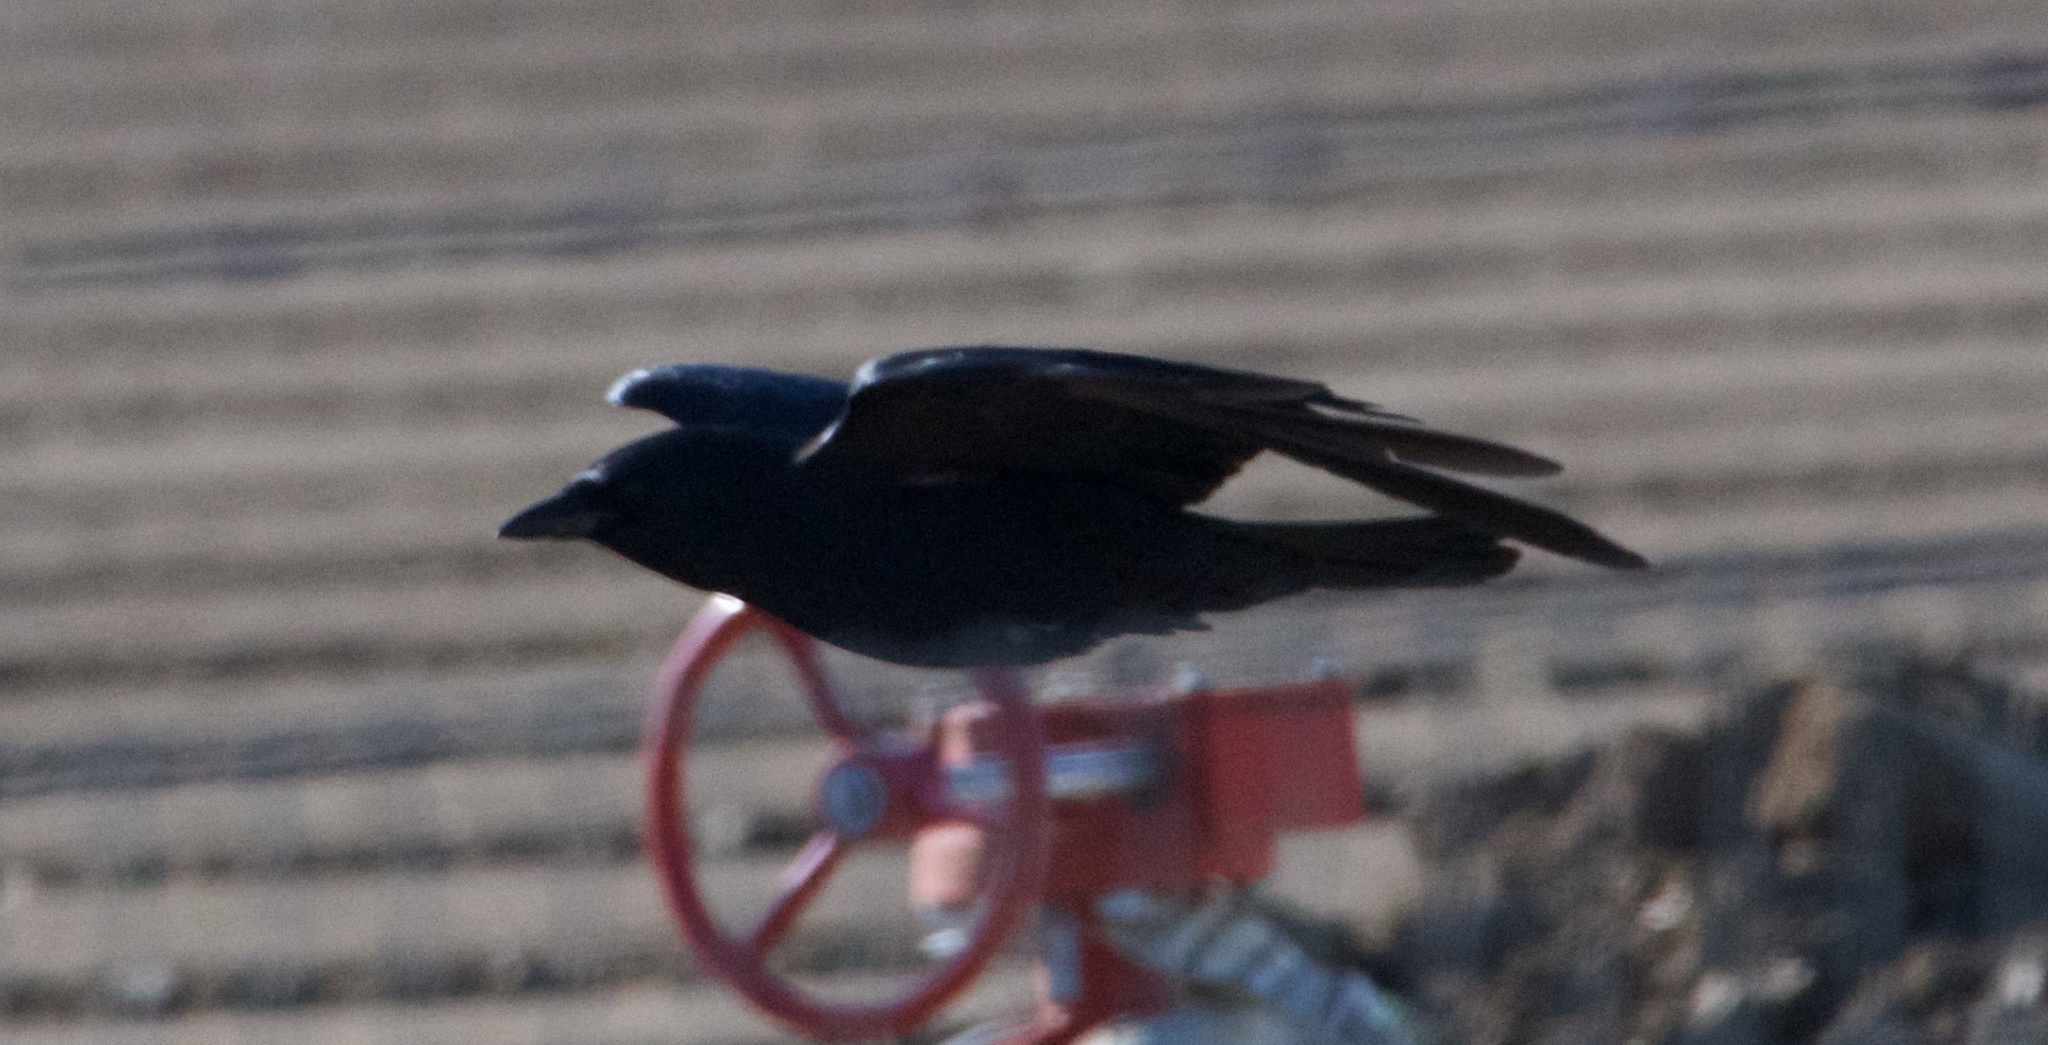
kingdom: Animalia
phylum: Chordata
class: Aves
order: Passeriformes
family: Corvidae
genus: Corvus
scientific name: Corvus brachyrhynchos
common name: American crow
